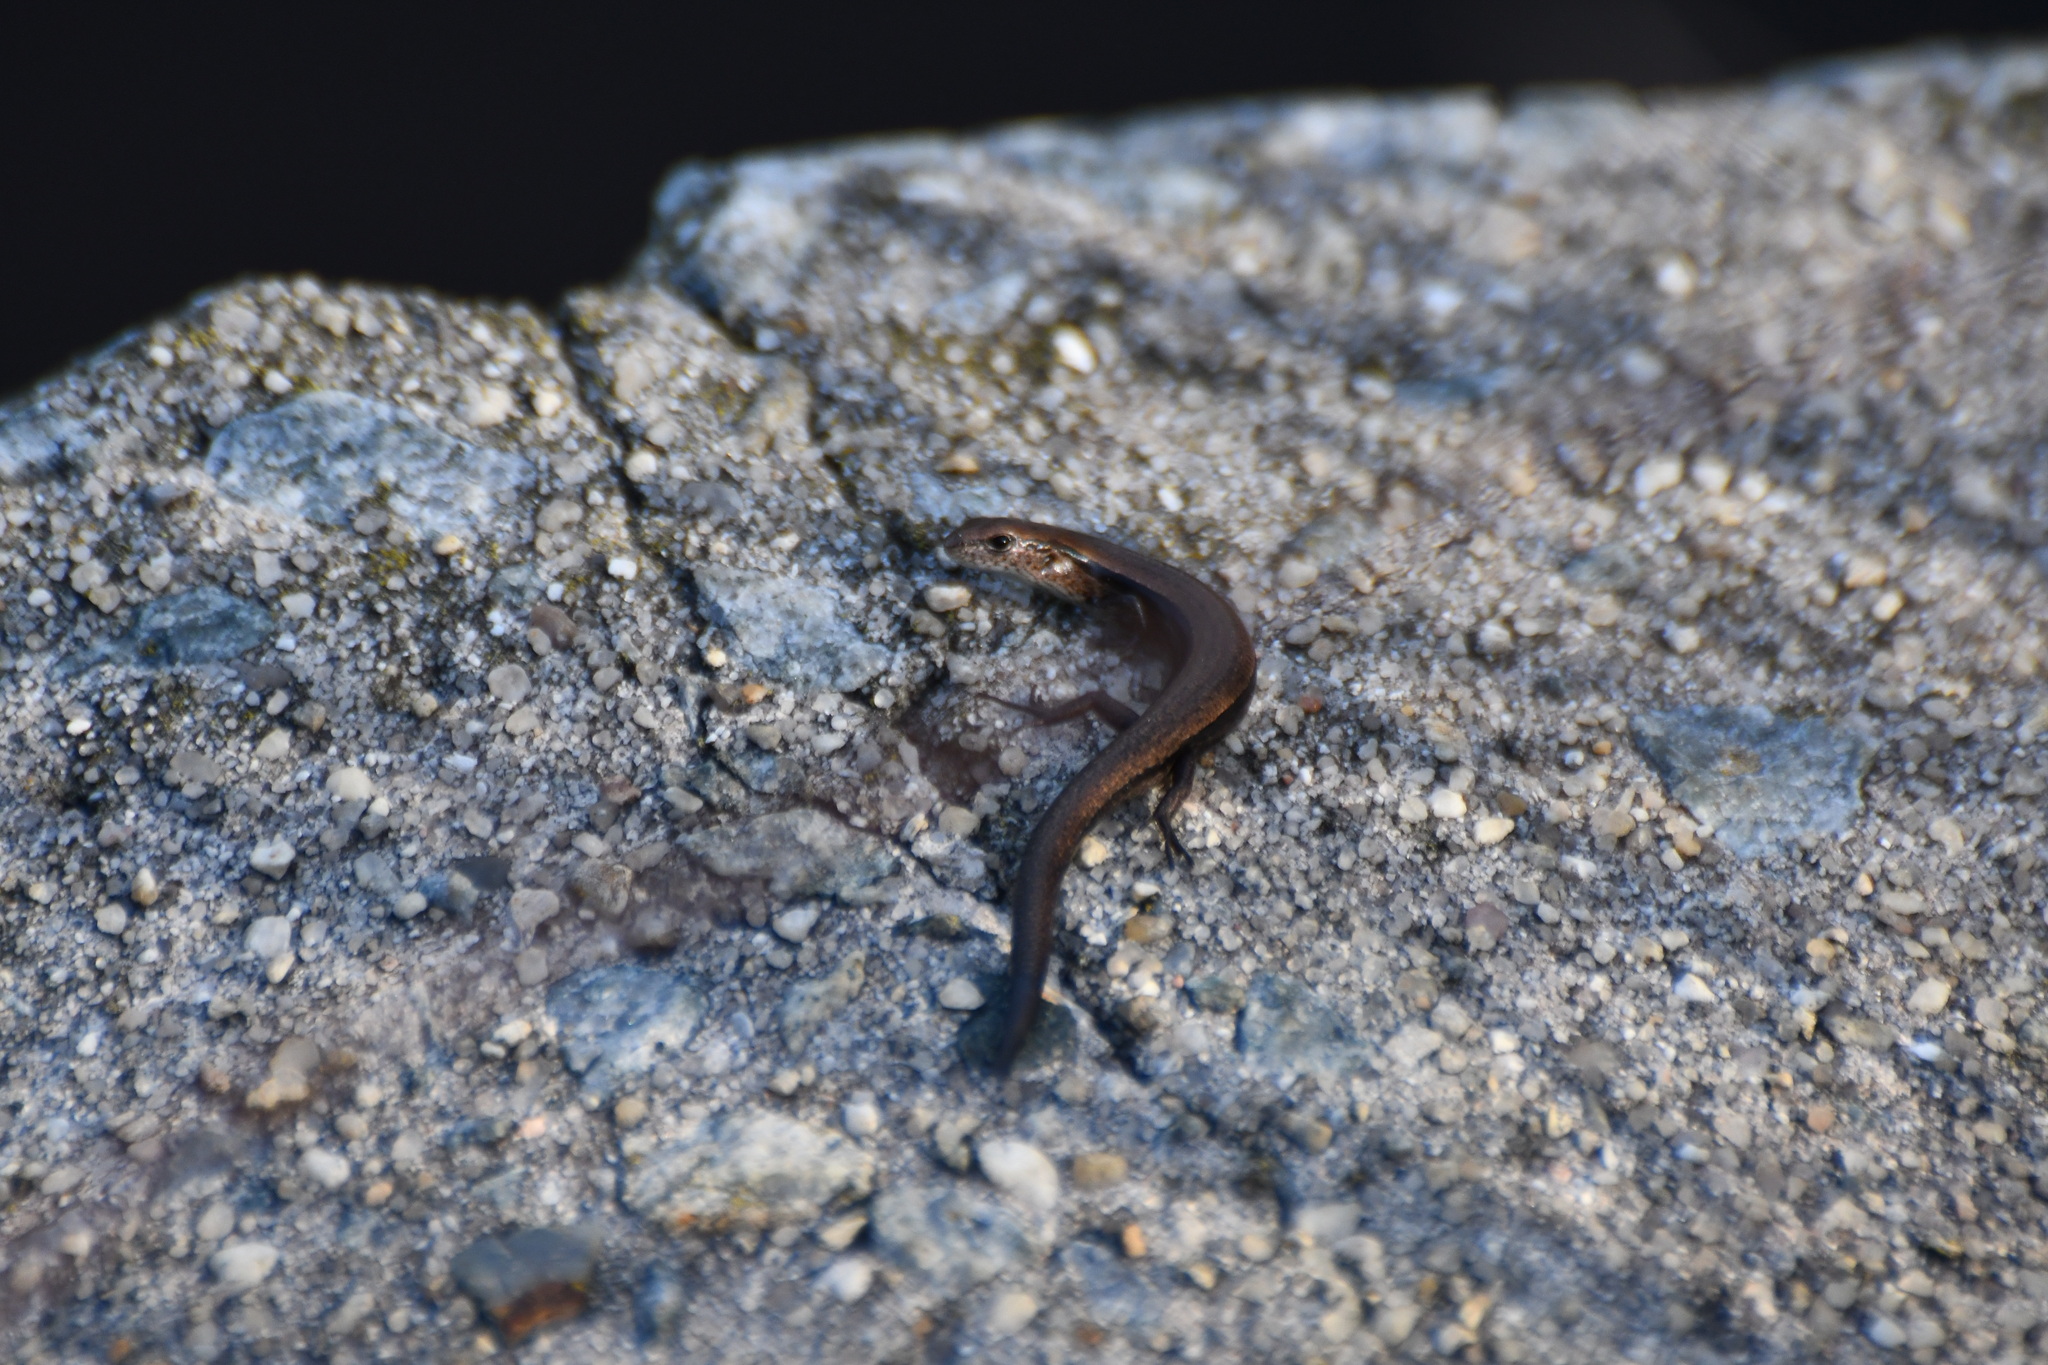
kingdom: Animalia
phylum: Chordata
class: Squamata
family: Scincidae
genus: Scincella
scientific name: Scincella lateralis
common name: Ground skink
